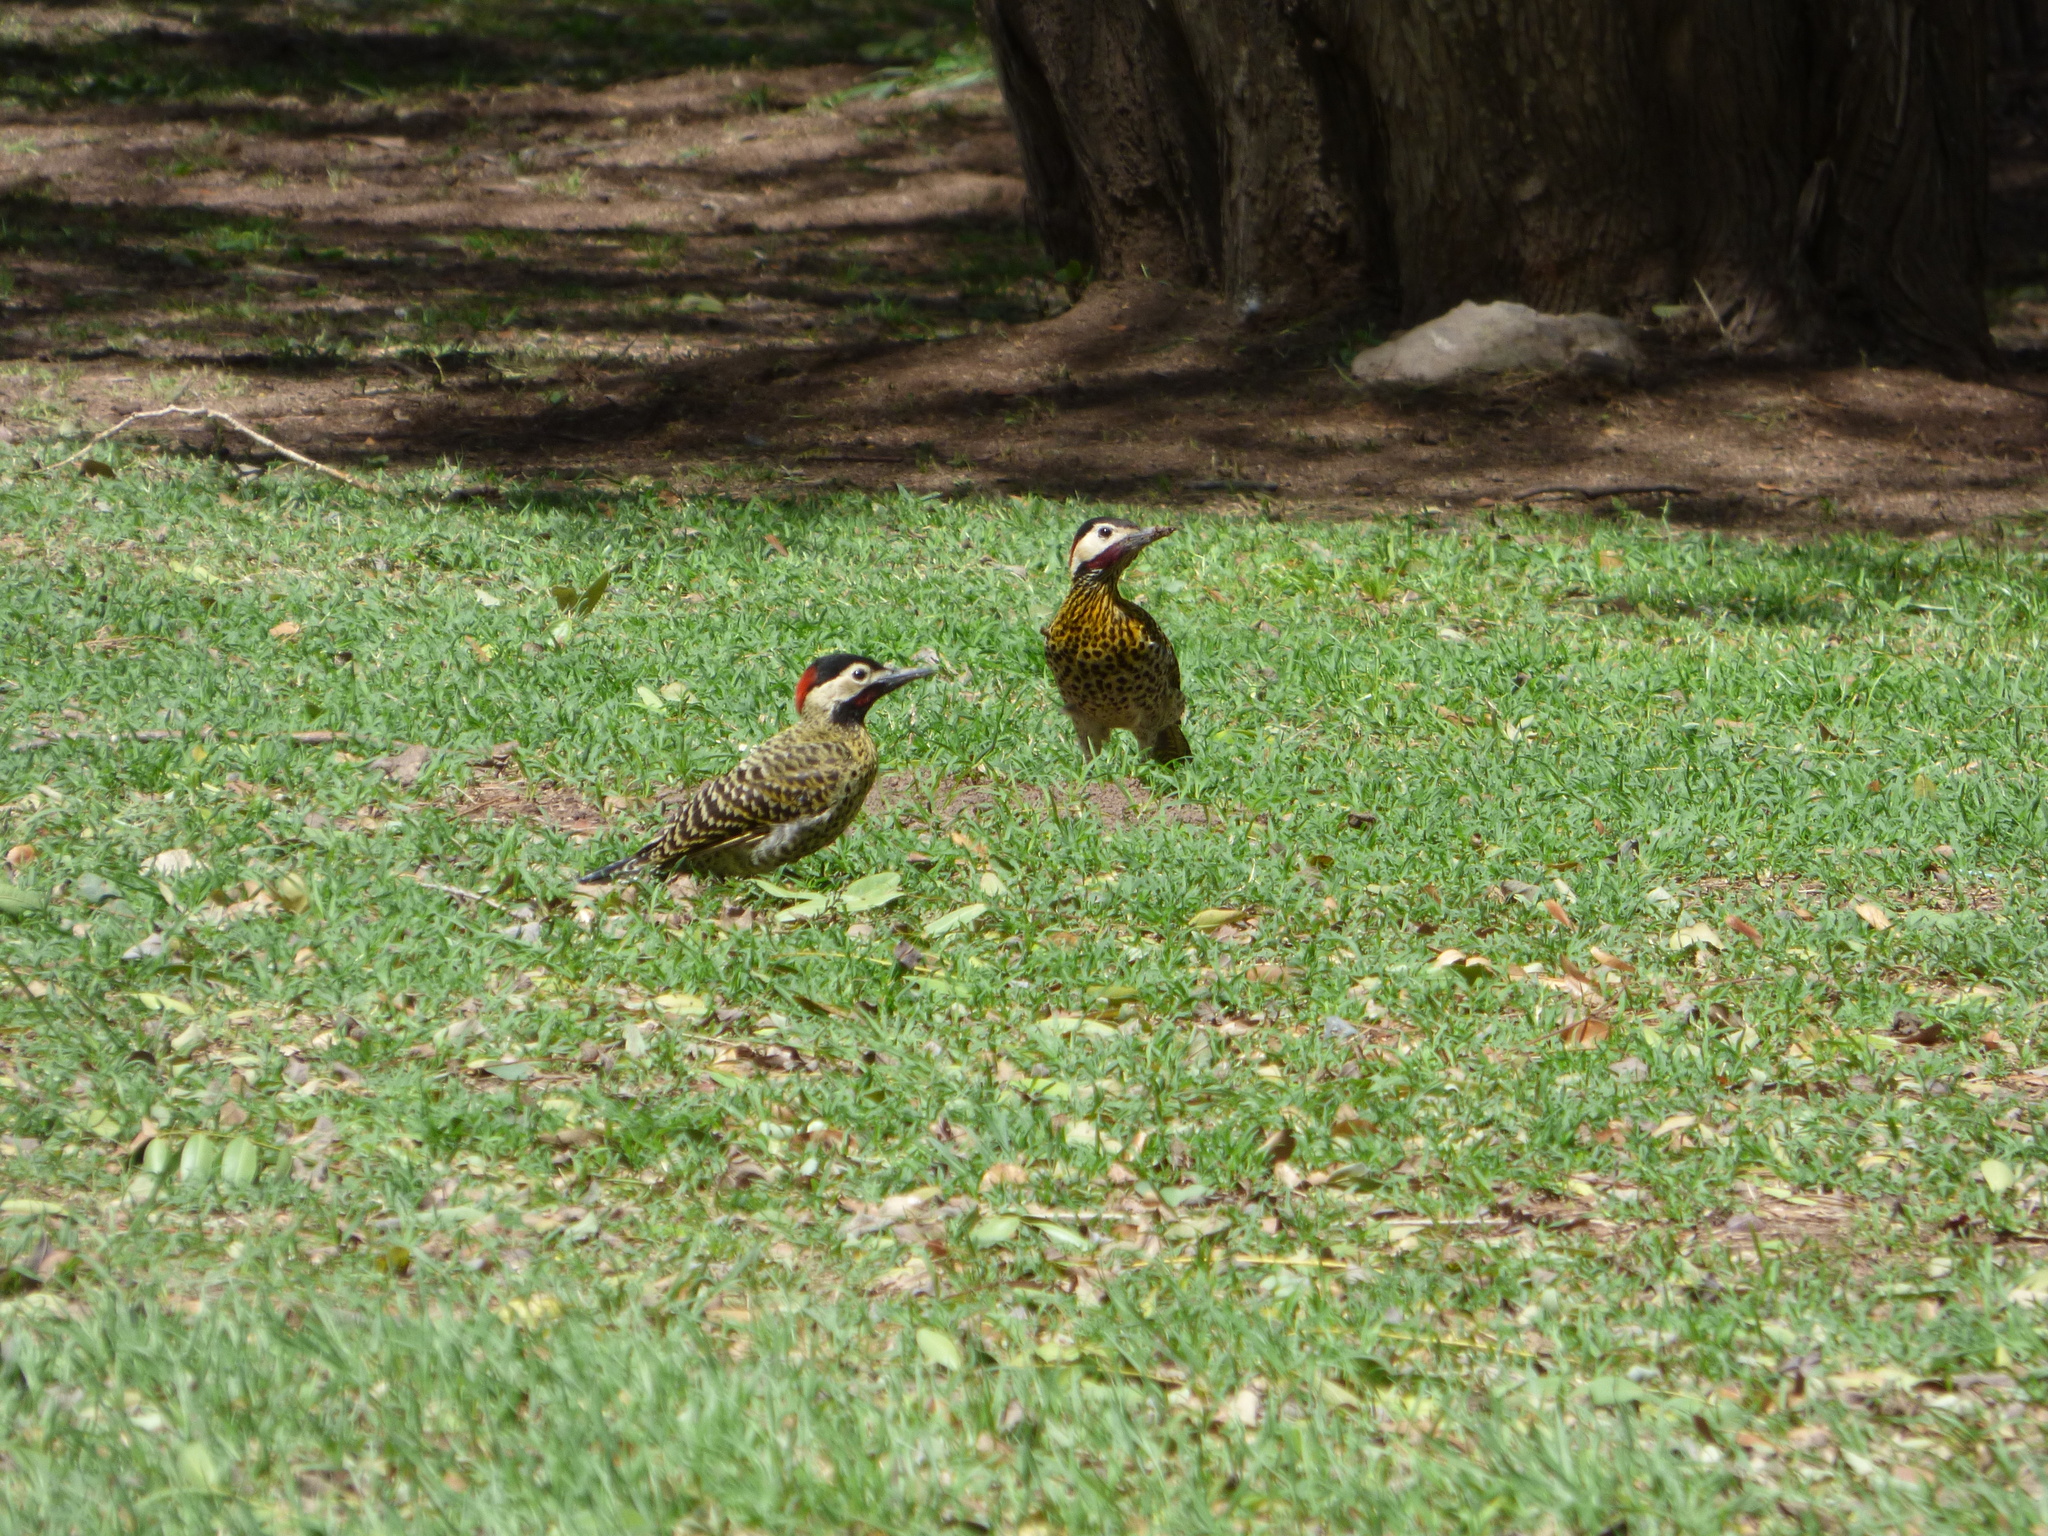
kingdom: Animalia
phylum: Chordata
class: Aves
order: Piciformes
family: Picidae
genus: Colaptes
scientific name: Colaptes melanochloros
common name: Green-barred woodpecker
